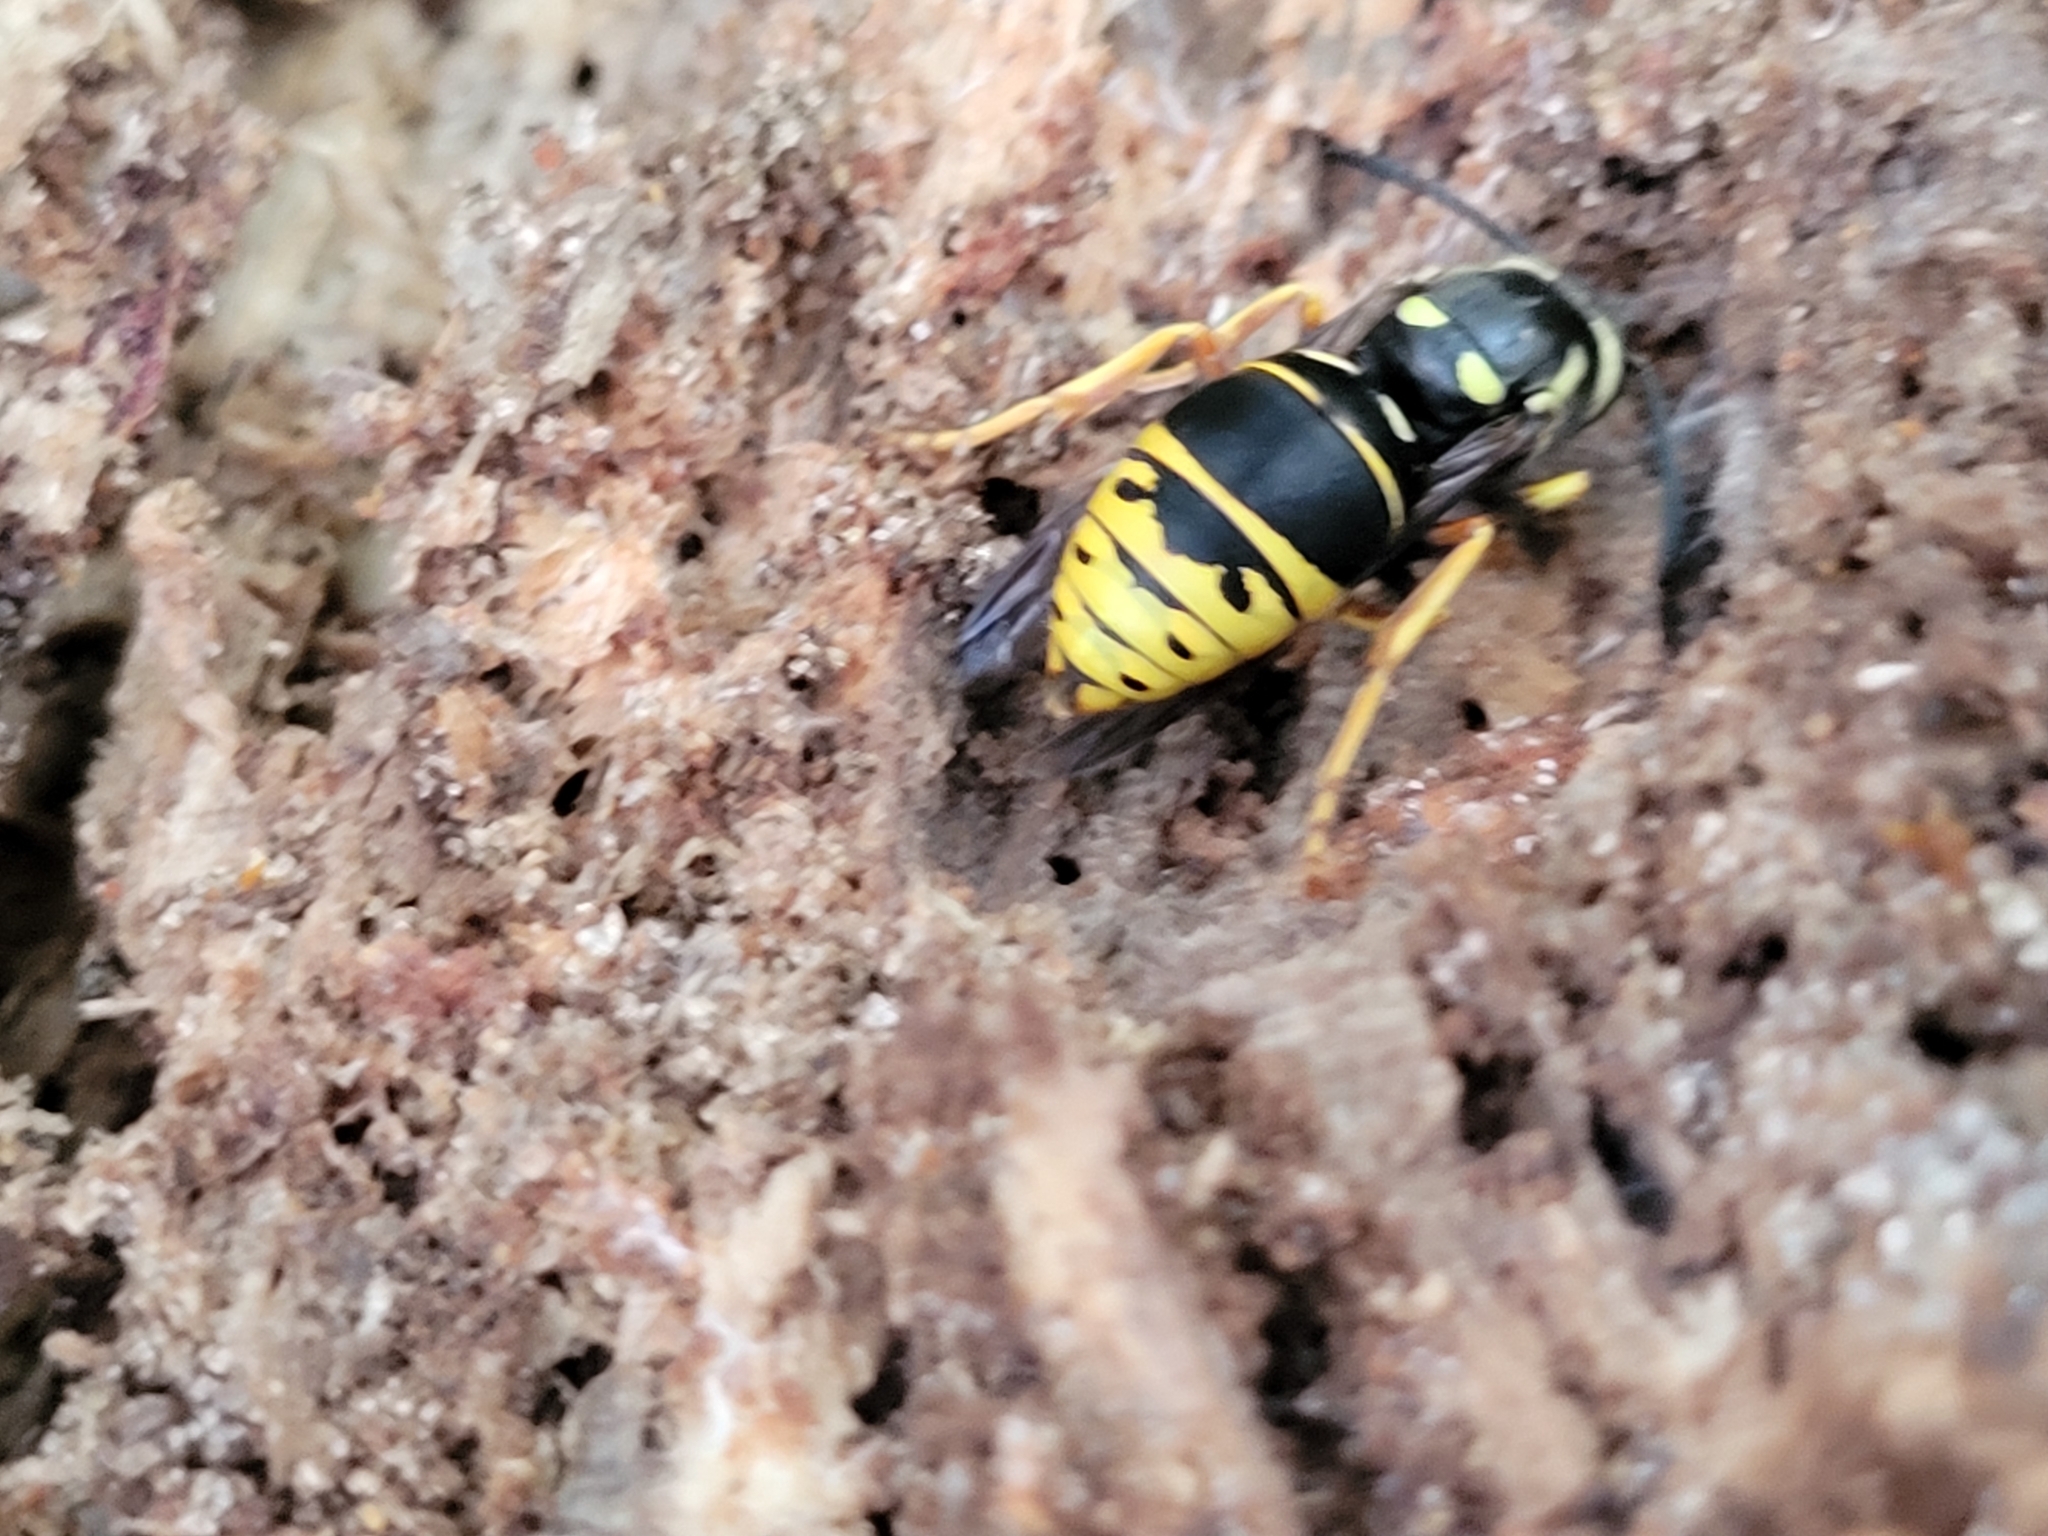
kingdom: Animalia
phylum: Arthropoda
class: Insecta
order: Hymenoptera
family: Vespidae
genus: Vespula
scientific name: Vespula vidua
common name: Widow yellowjacket
